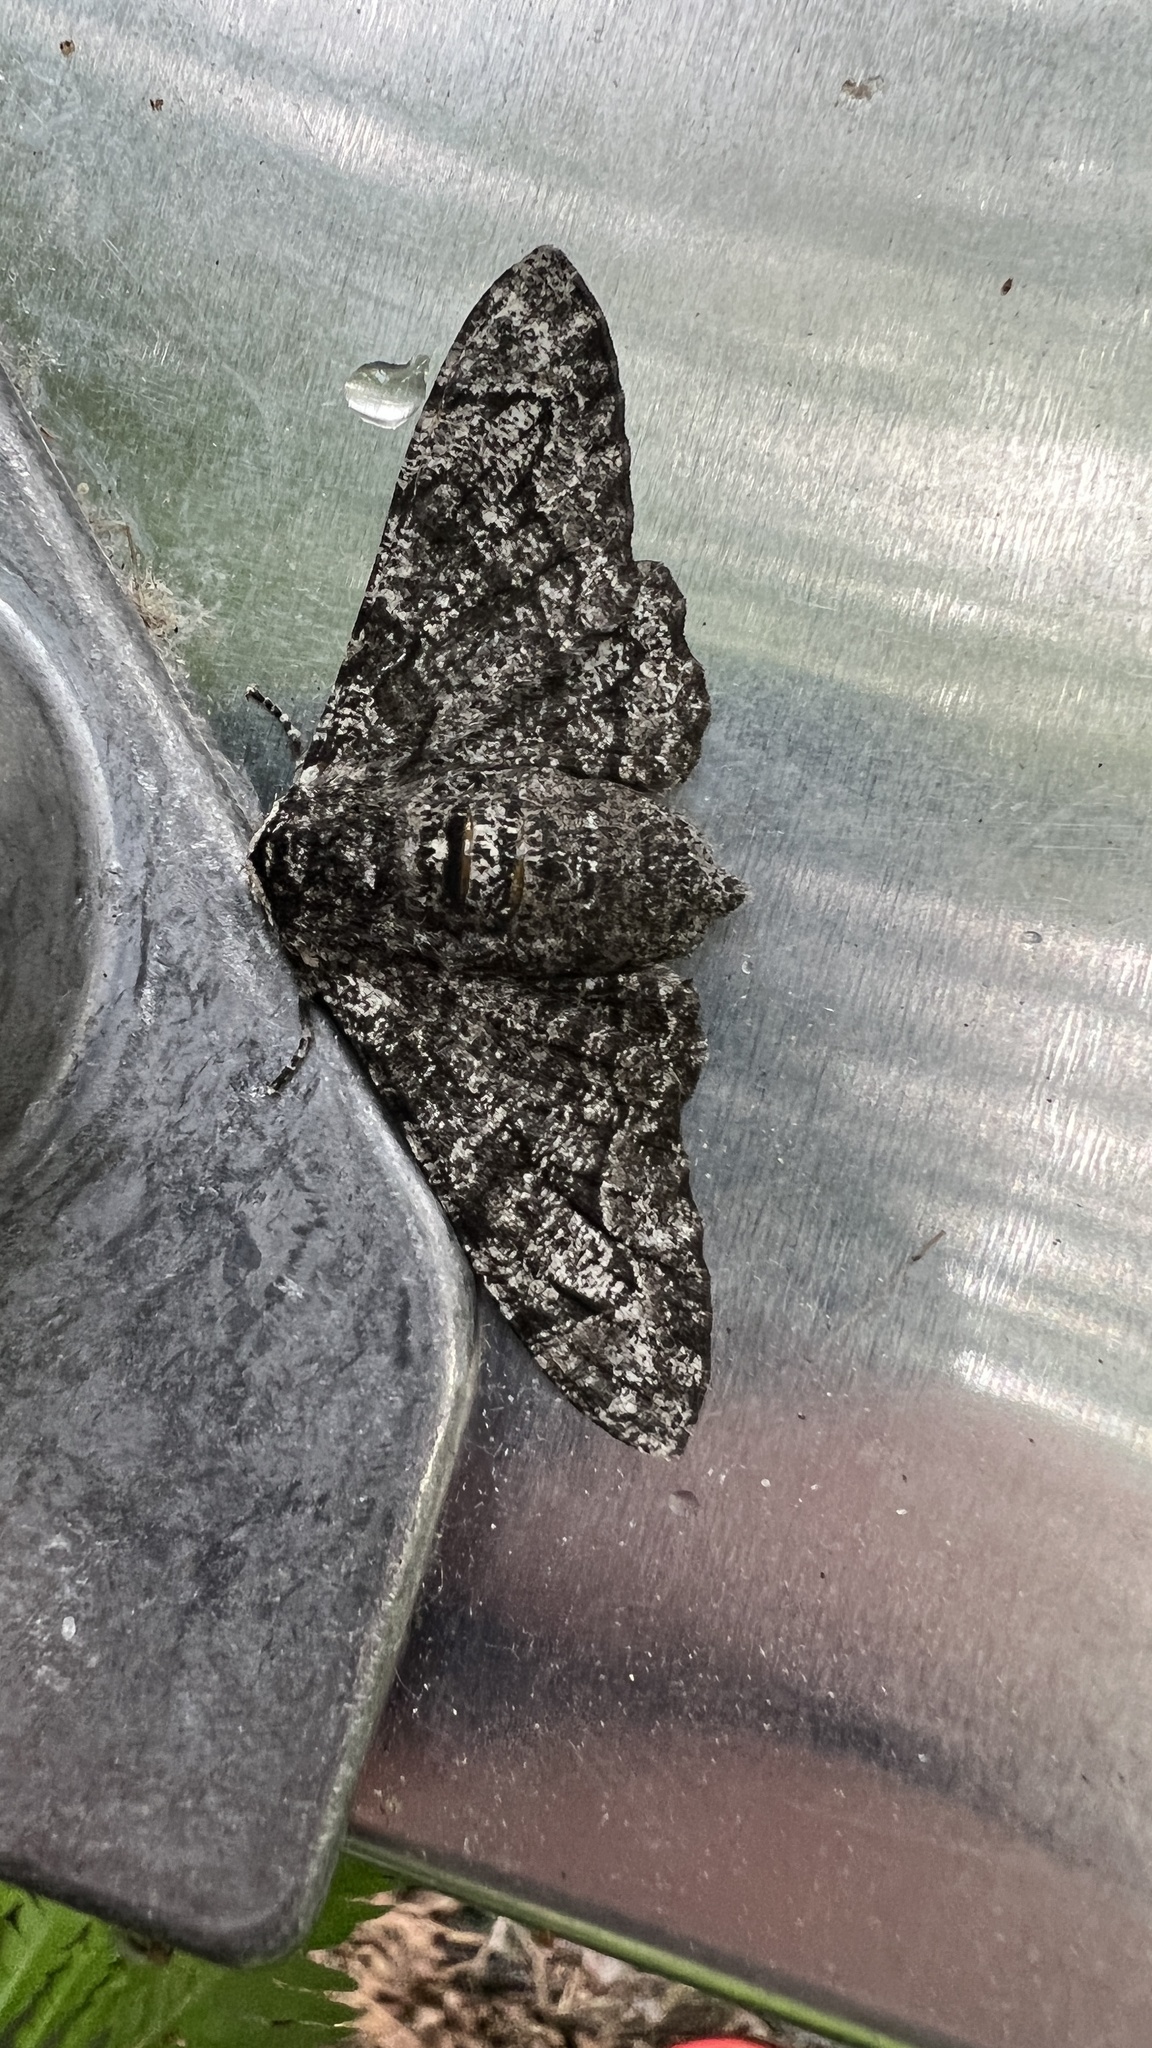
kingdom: Animalia
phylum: Arthropoda
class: Insecta
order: Lepidoptera
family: Geometridae
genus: Biston
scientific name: Biston betularia
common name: Peppered moth
